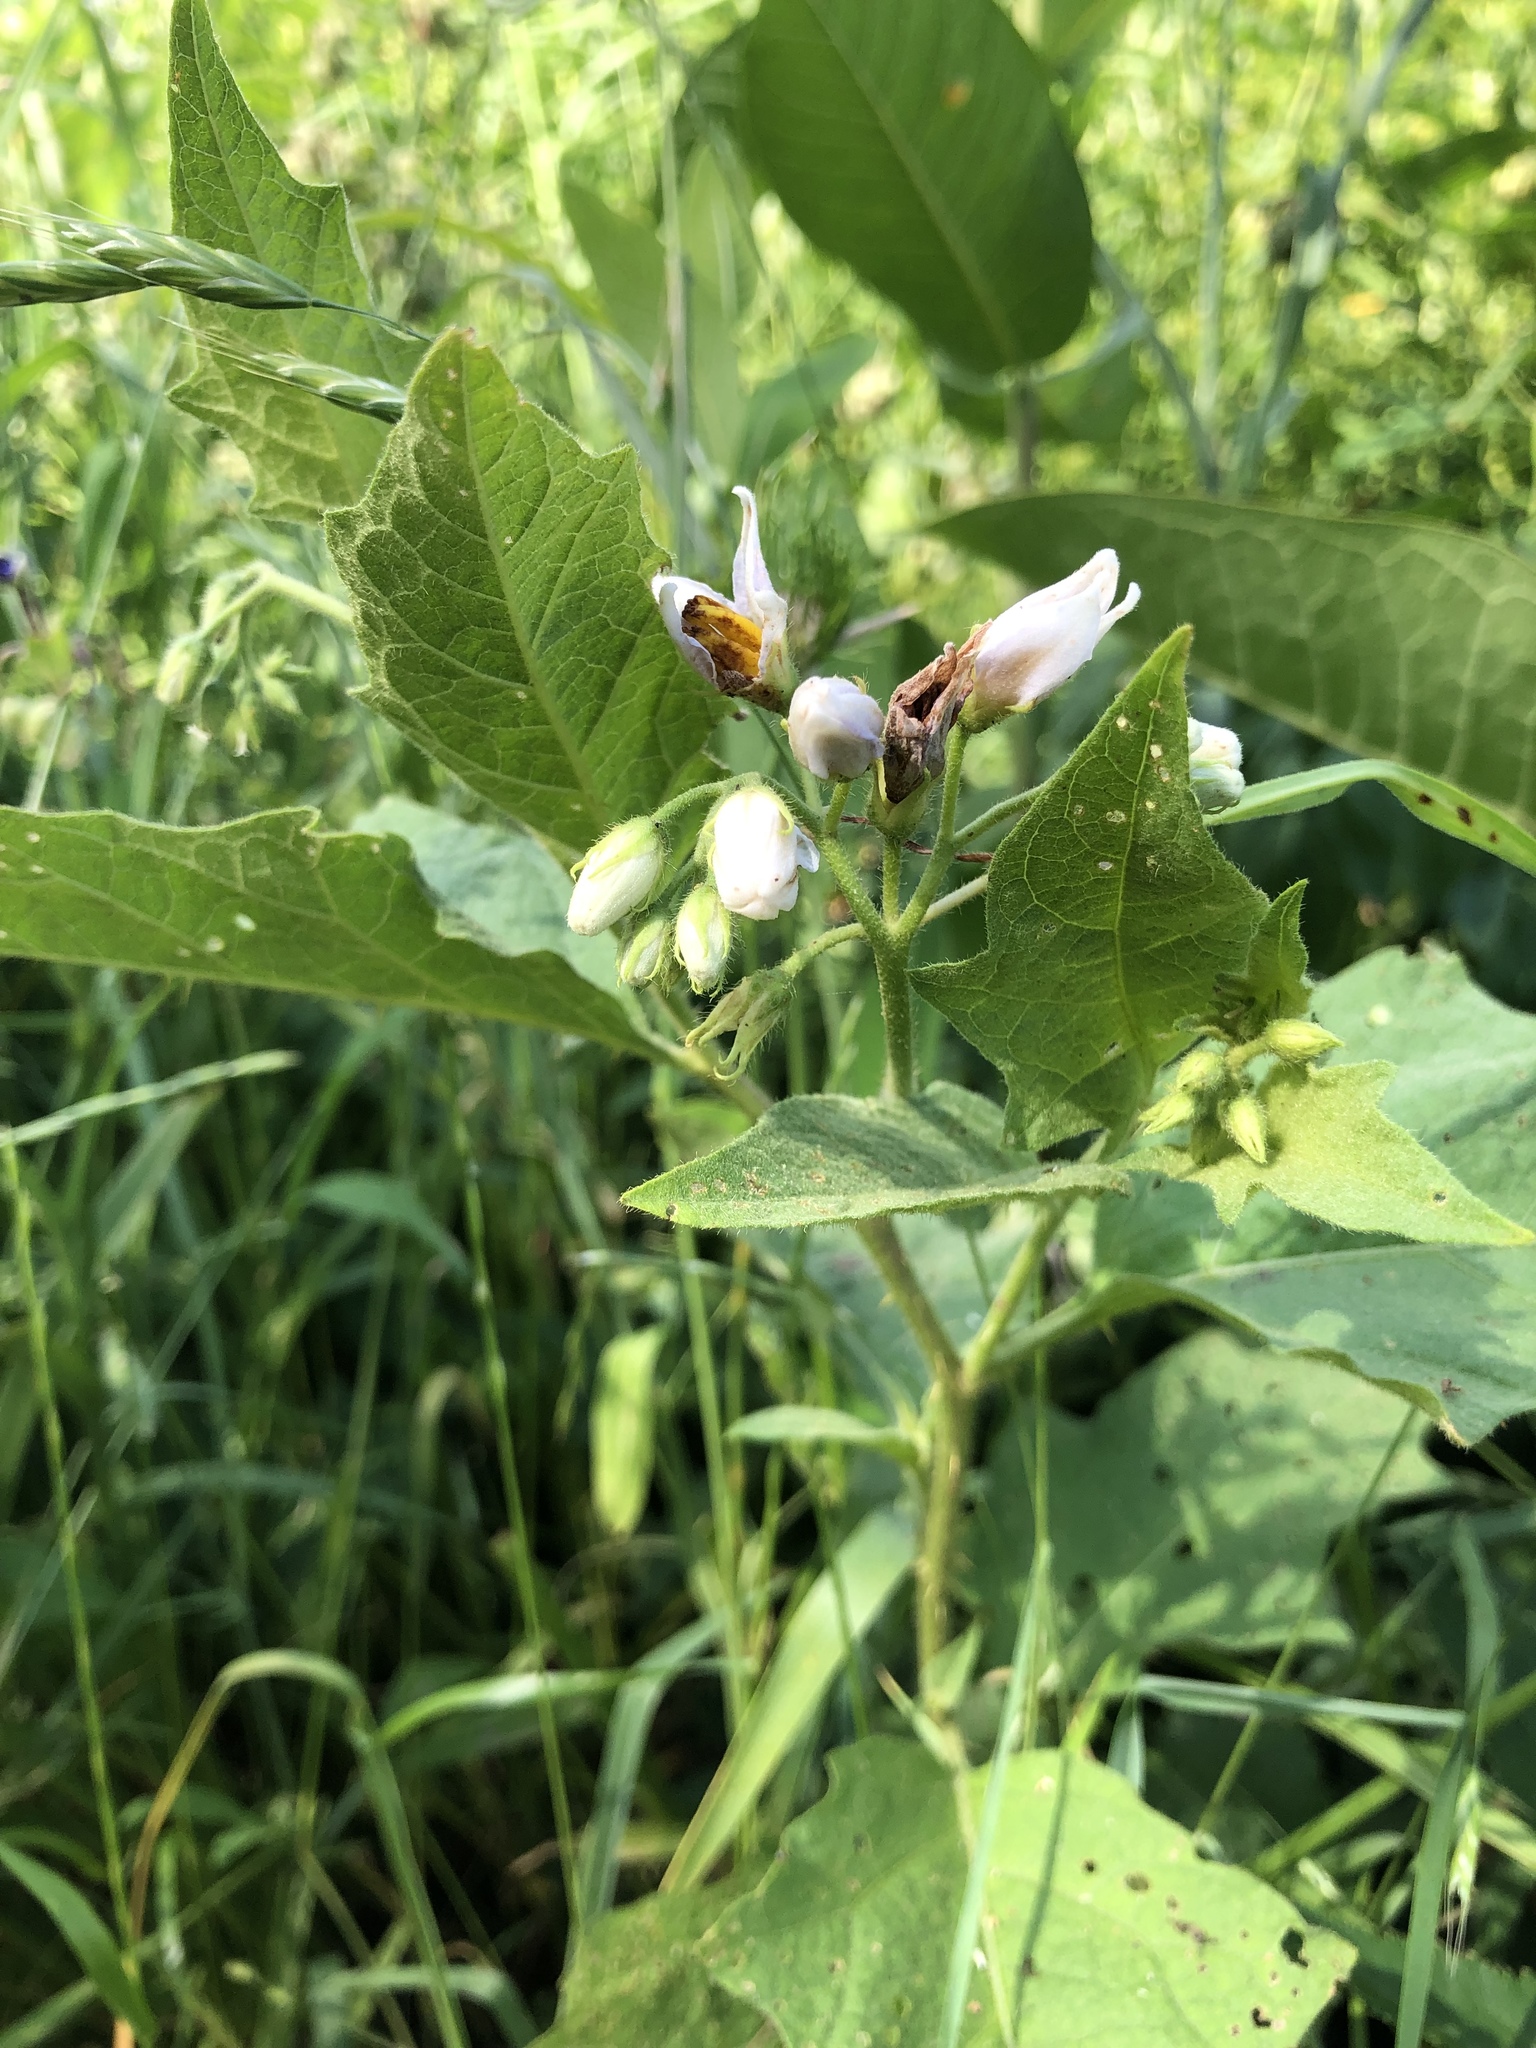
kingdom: Plantae
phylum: Tracheophyta
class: Magnoliopsida
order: Solanales
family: Solanaceae
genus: Solanum
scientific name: Solanum carolinense
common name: Horse-nettle
